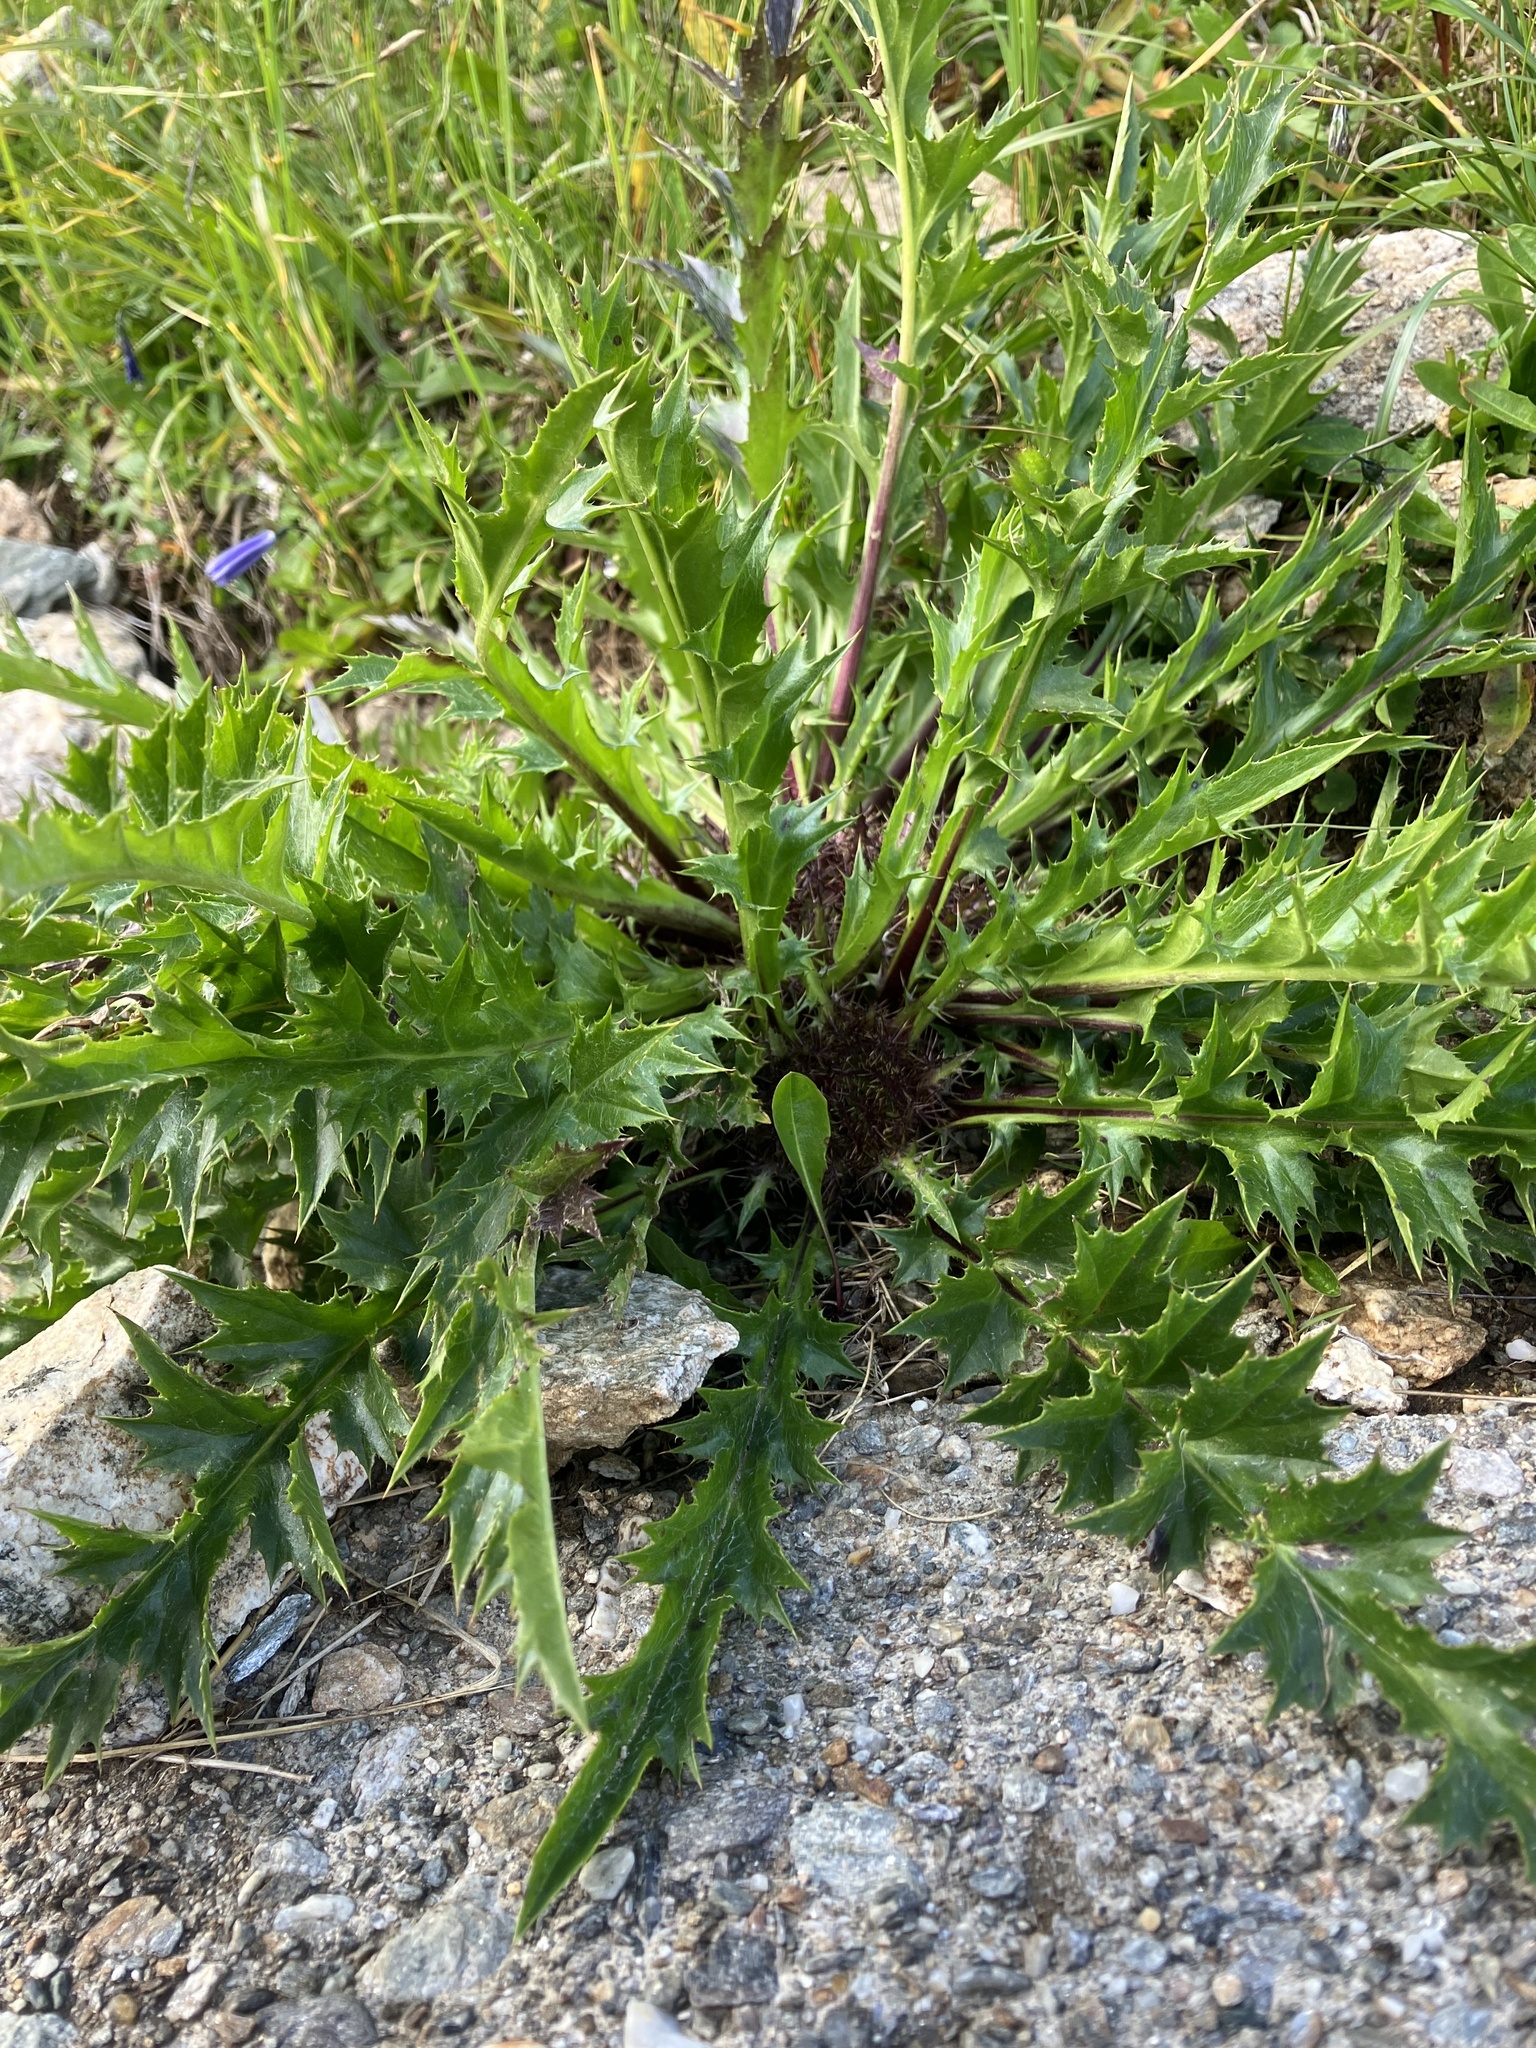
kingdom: Plantae
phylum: Tracheophyta
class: Magnoliopsida
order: Asterales
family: Asteraceae
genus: Carlina
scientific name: Carlina acaulis
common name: Stemless carline thistle
